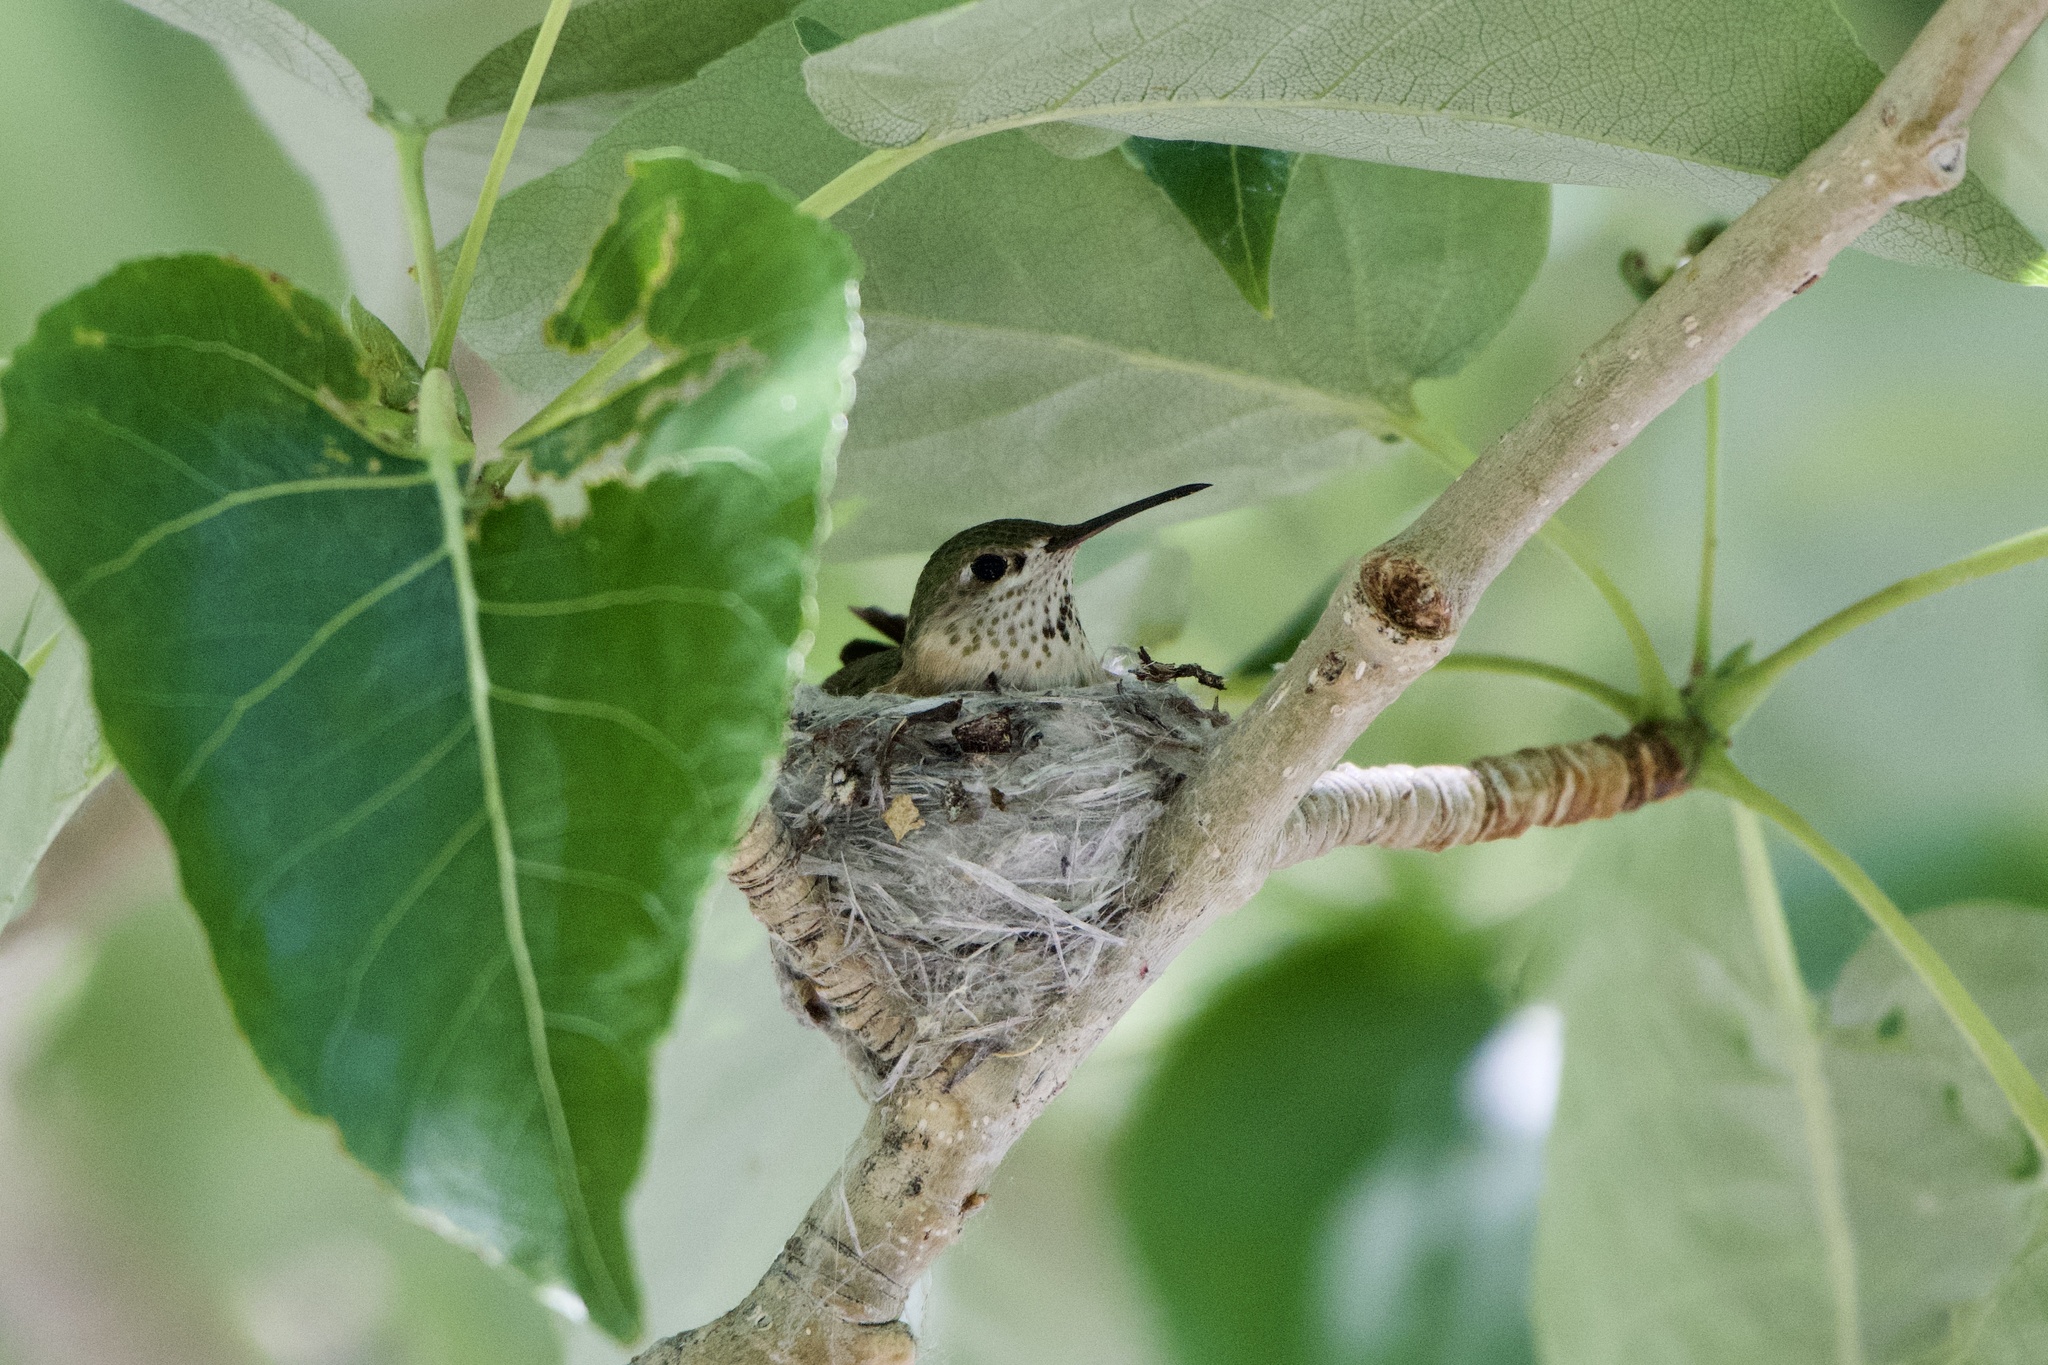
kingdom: Animalia
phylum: Chordata
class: Aves
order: Apodiformes
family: Trochilidae
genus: Selasphorus
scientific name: Selasphorus calliope
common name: Calliope hummingbird
